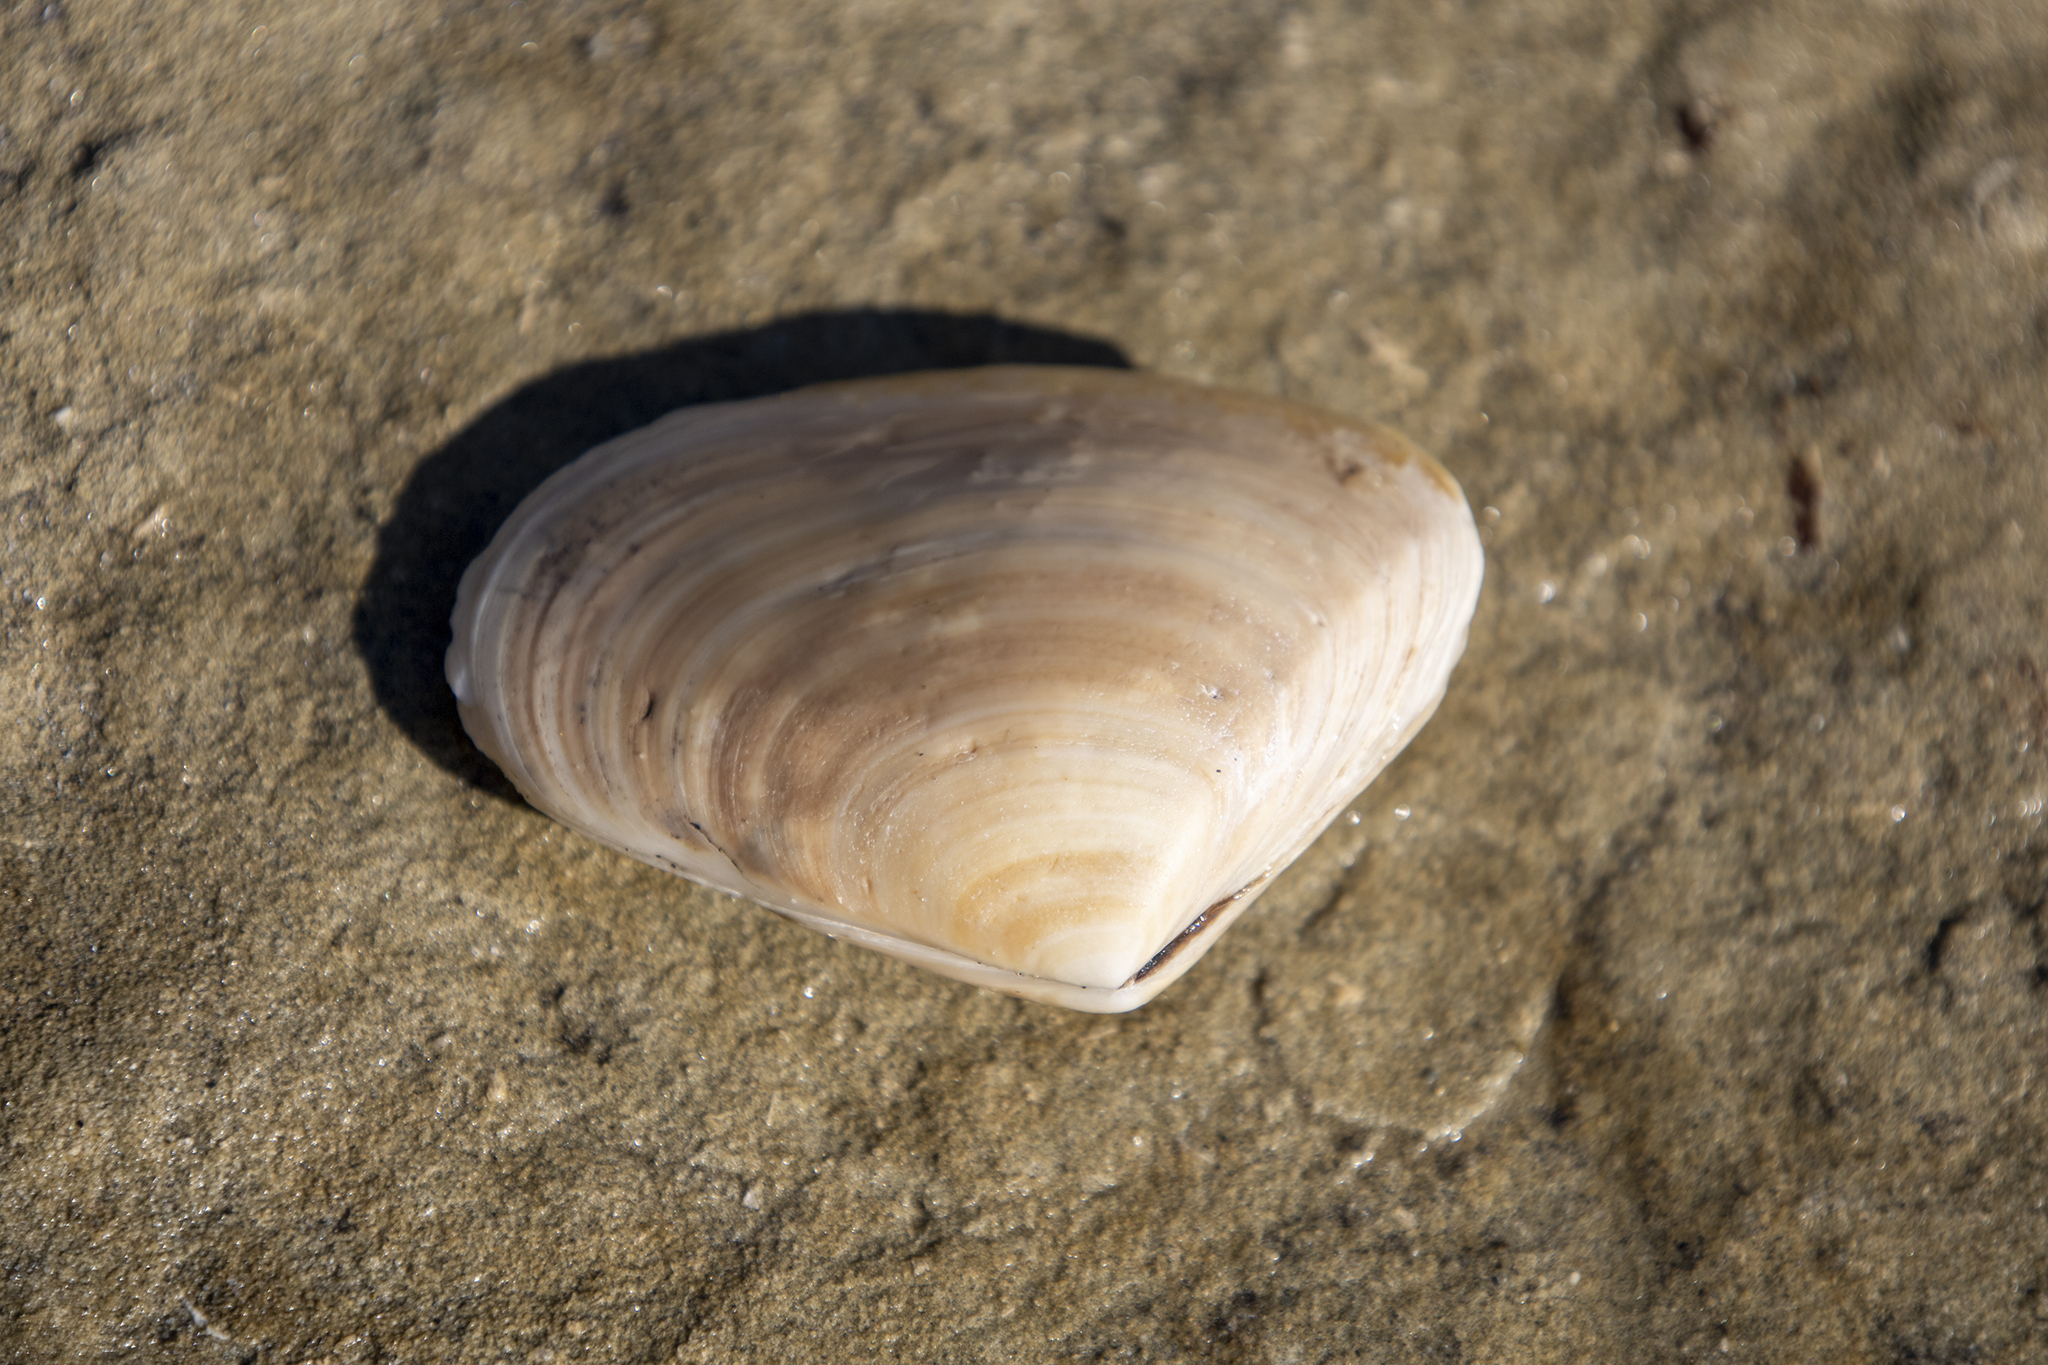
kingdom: Animalia
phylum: Mollusca
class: Bivalvia
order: Venerida
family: Mesodesmatidae
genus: Paphies
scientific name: Paphies donacina
